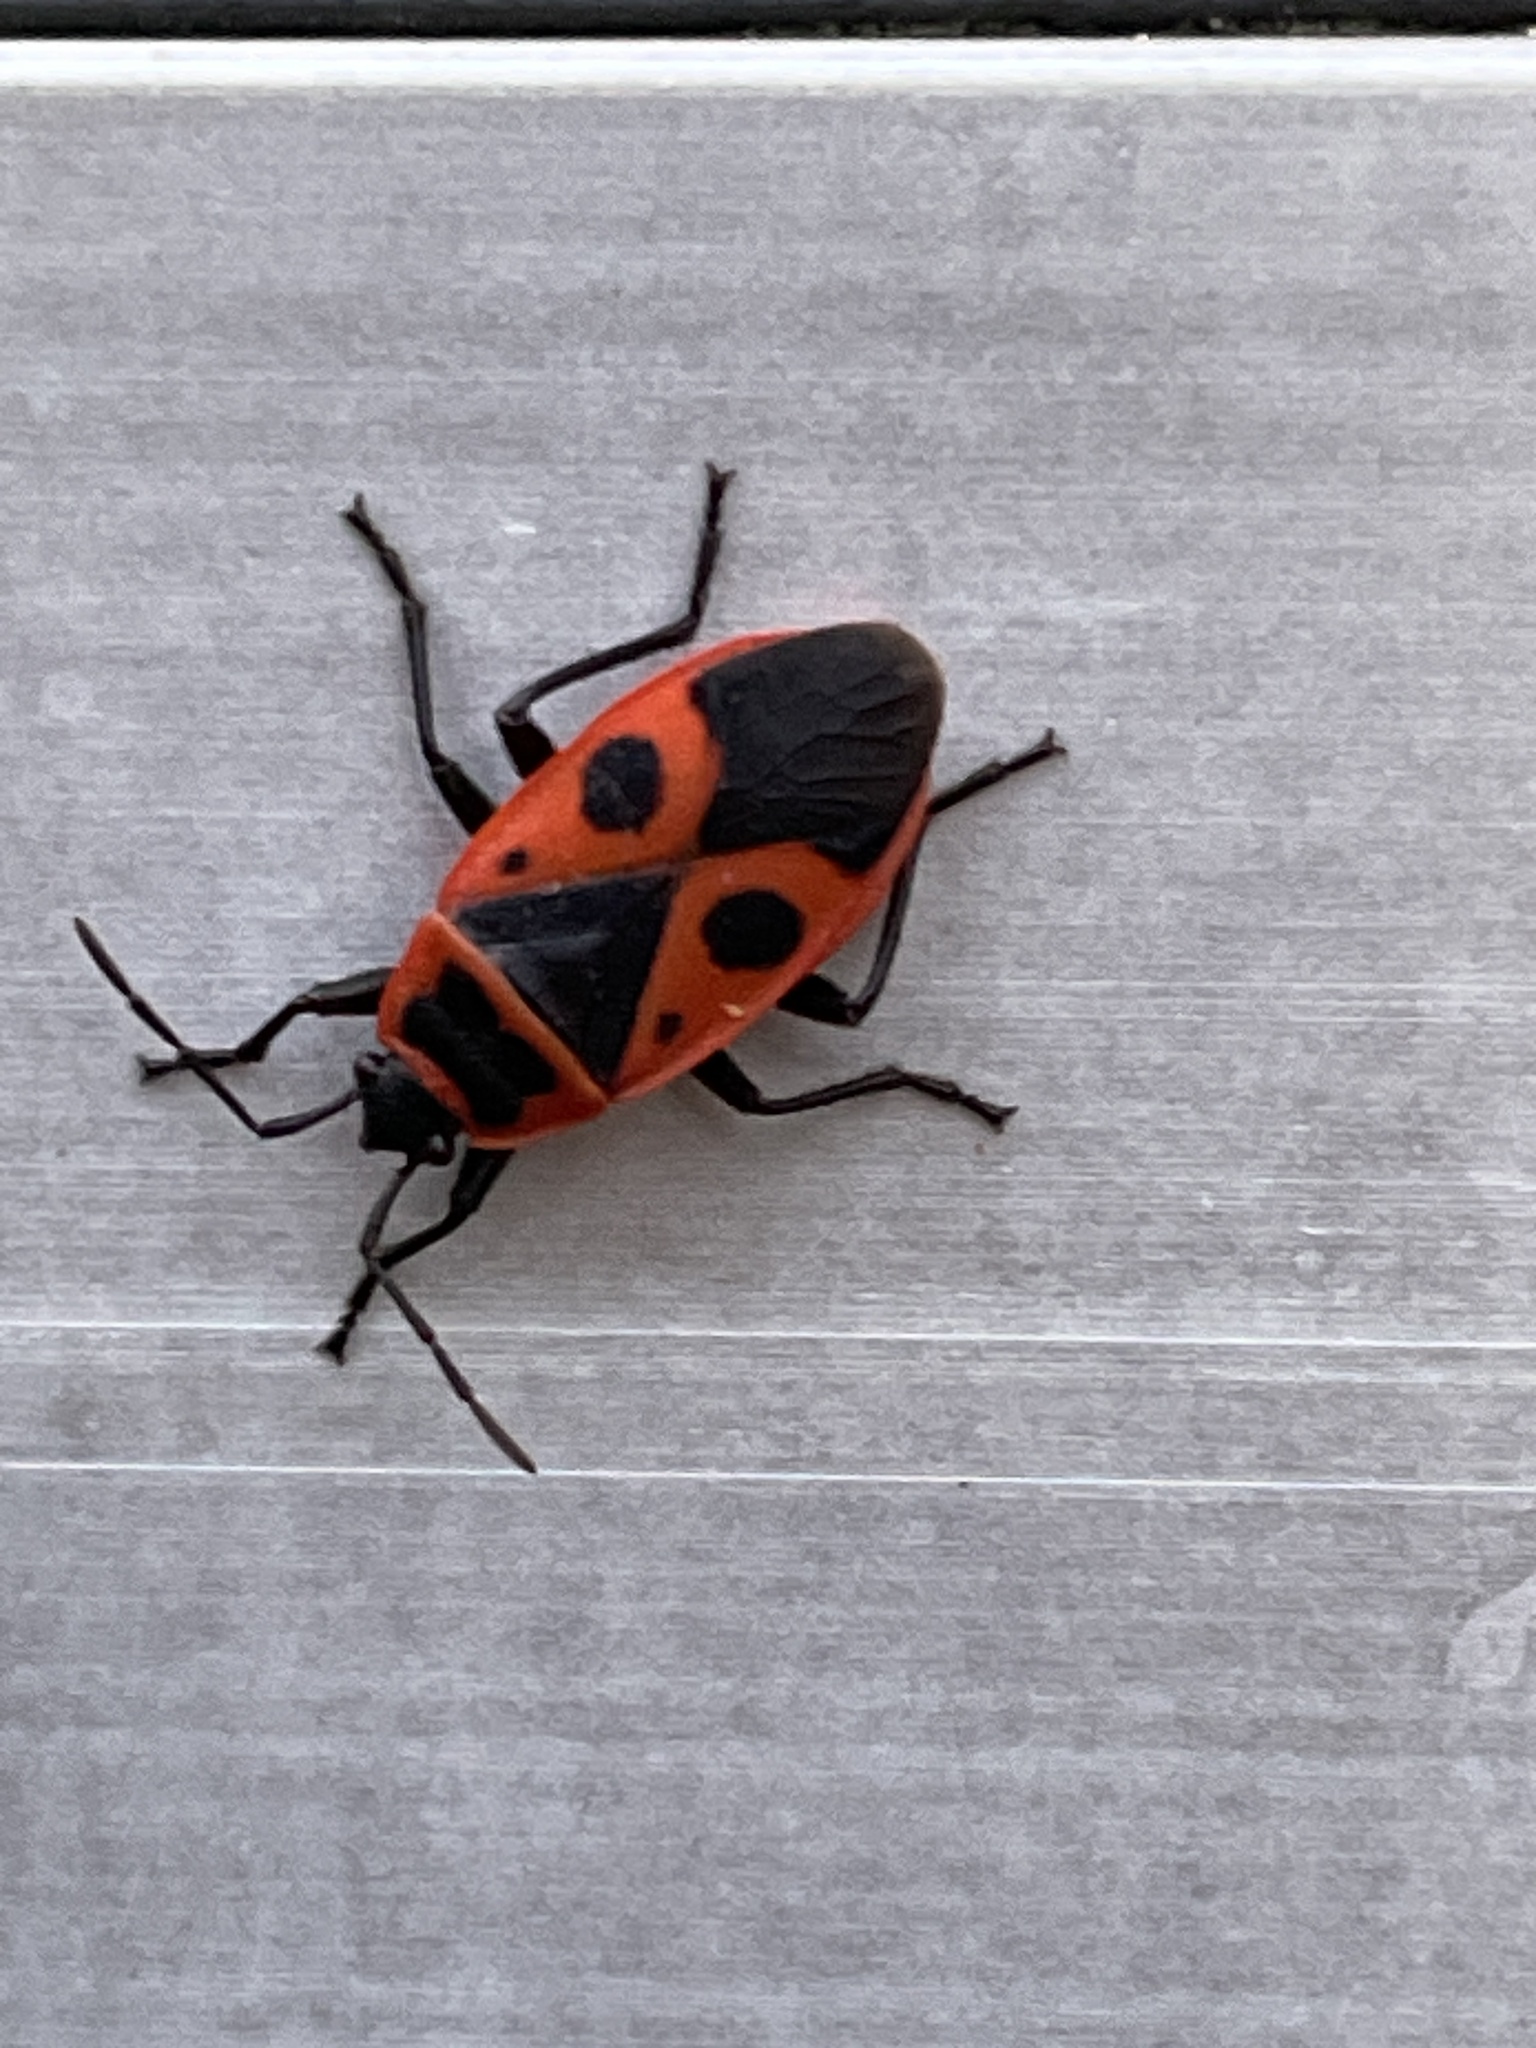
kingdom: Animalia
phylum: Arthropoda
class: Insecta
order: Hemiptera
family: Pyrrhocoridae
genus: Pyrrhocoris
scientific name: Pyrrhocoris apterus
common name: Firebug
